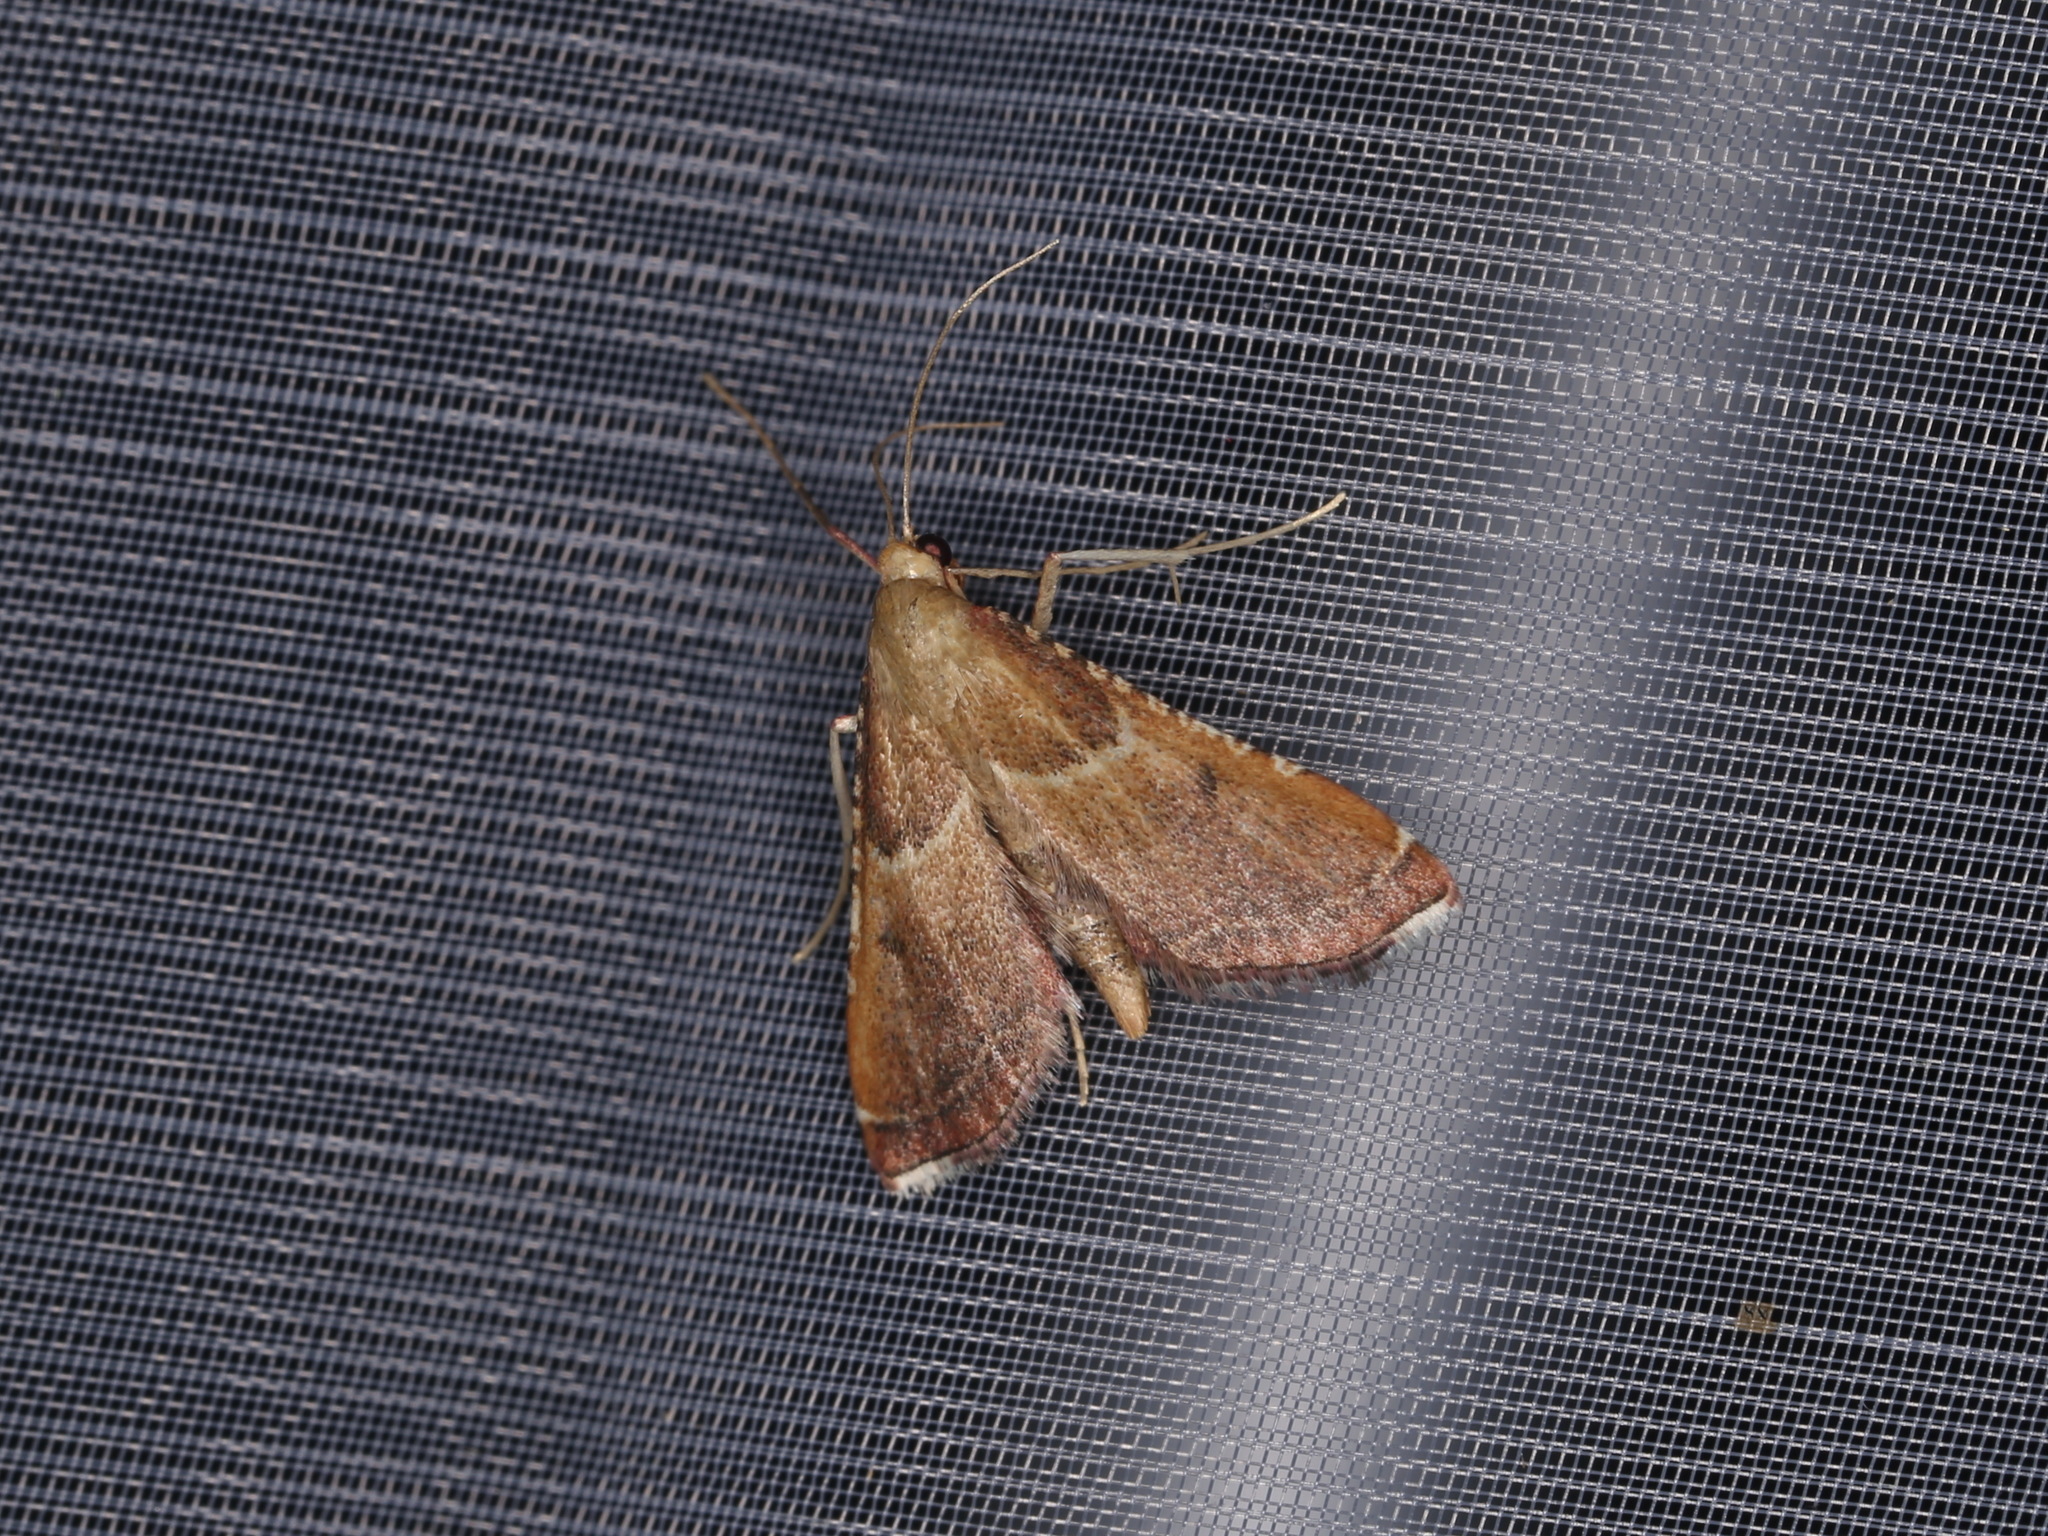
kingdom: Animalia
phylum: Arthropoda
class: Insecta
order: Lepidoptera
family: Pyralidae
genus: Endotricha
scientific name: Endotricha flammealis
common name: Rosy tabby
